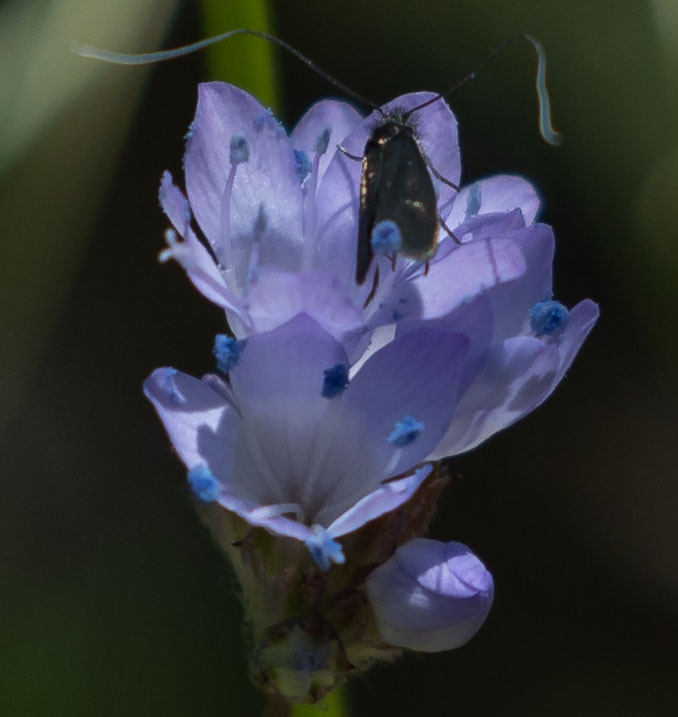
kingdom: Animalia
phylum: Arthropoda
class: Insecta
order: Lepidoptera
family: Adelidae
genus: Adela
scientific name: Adela singulella
